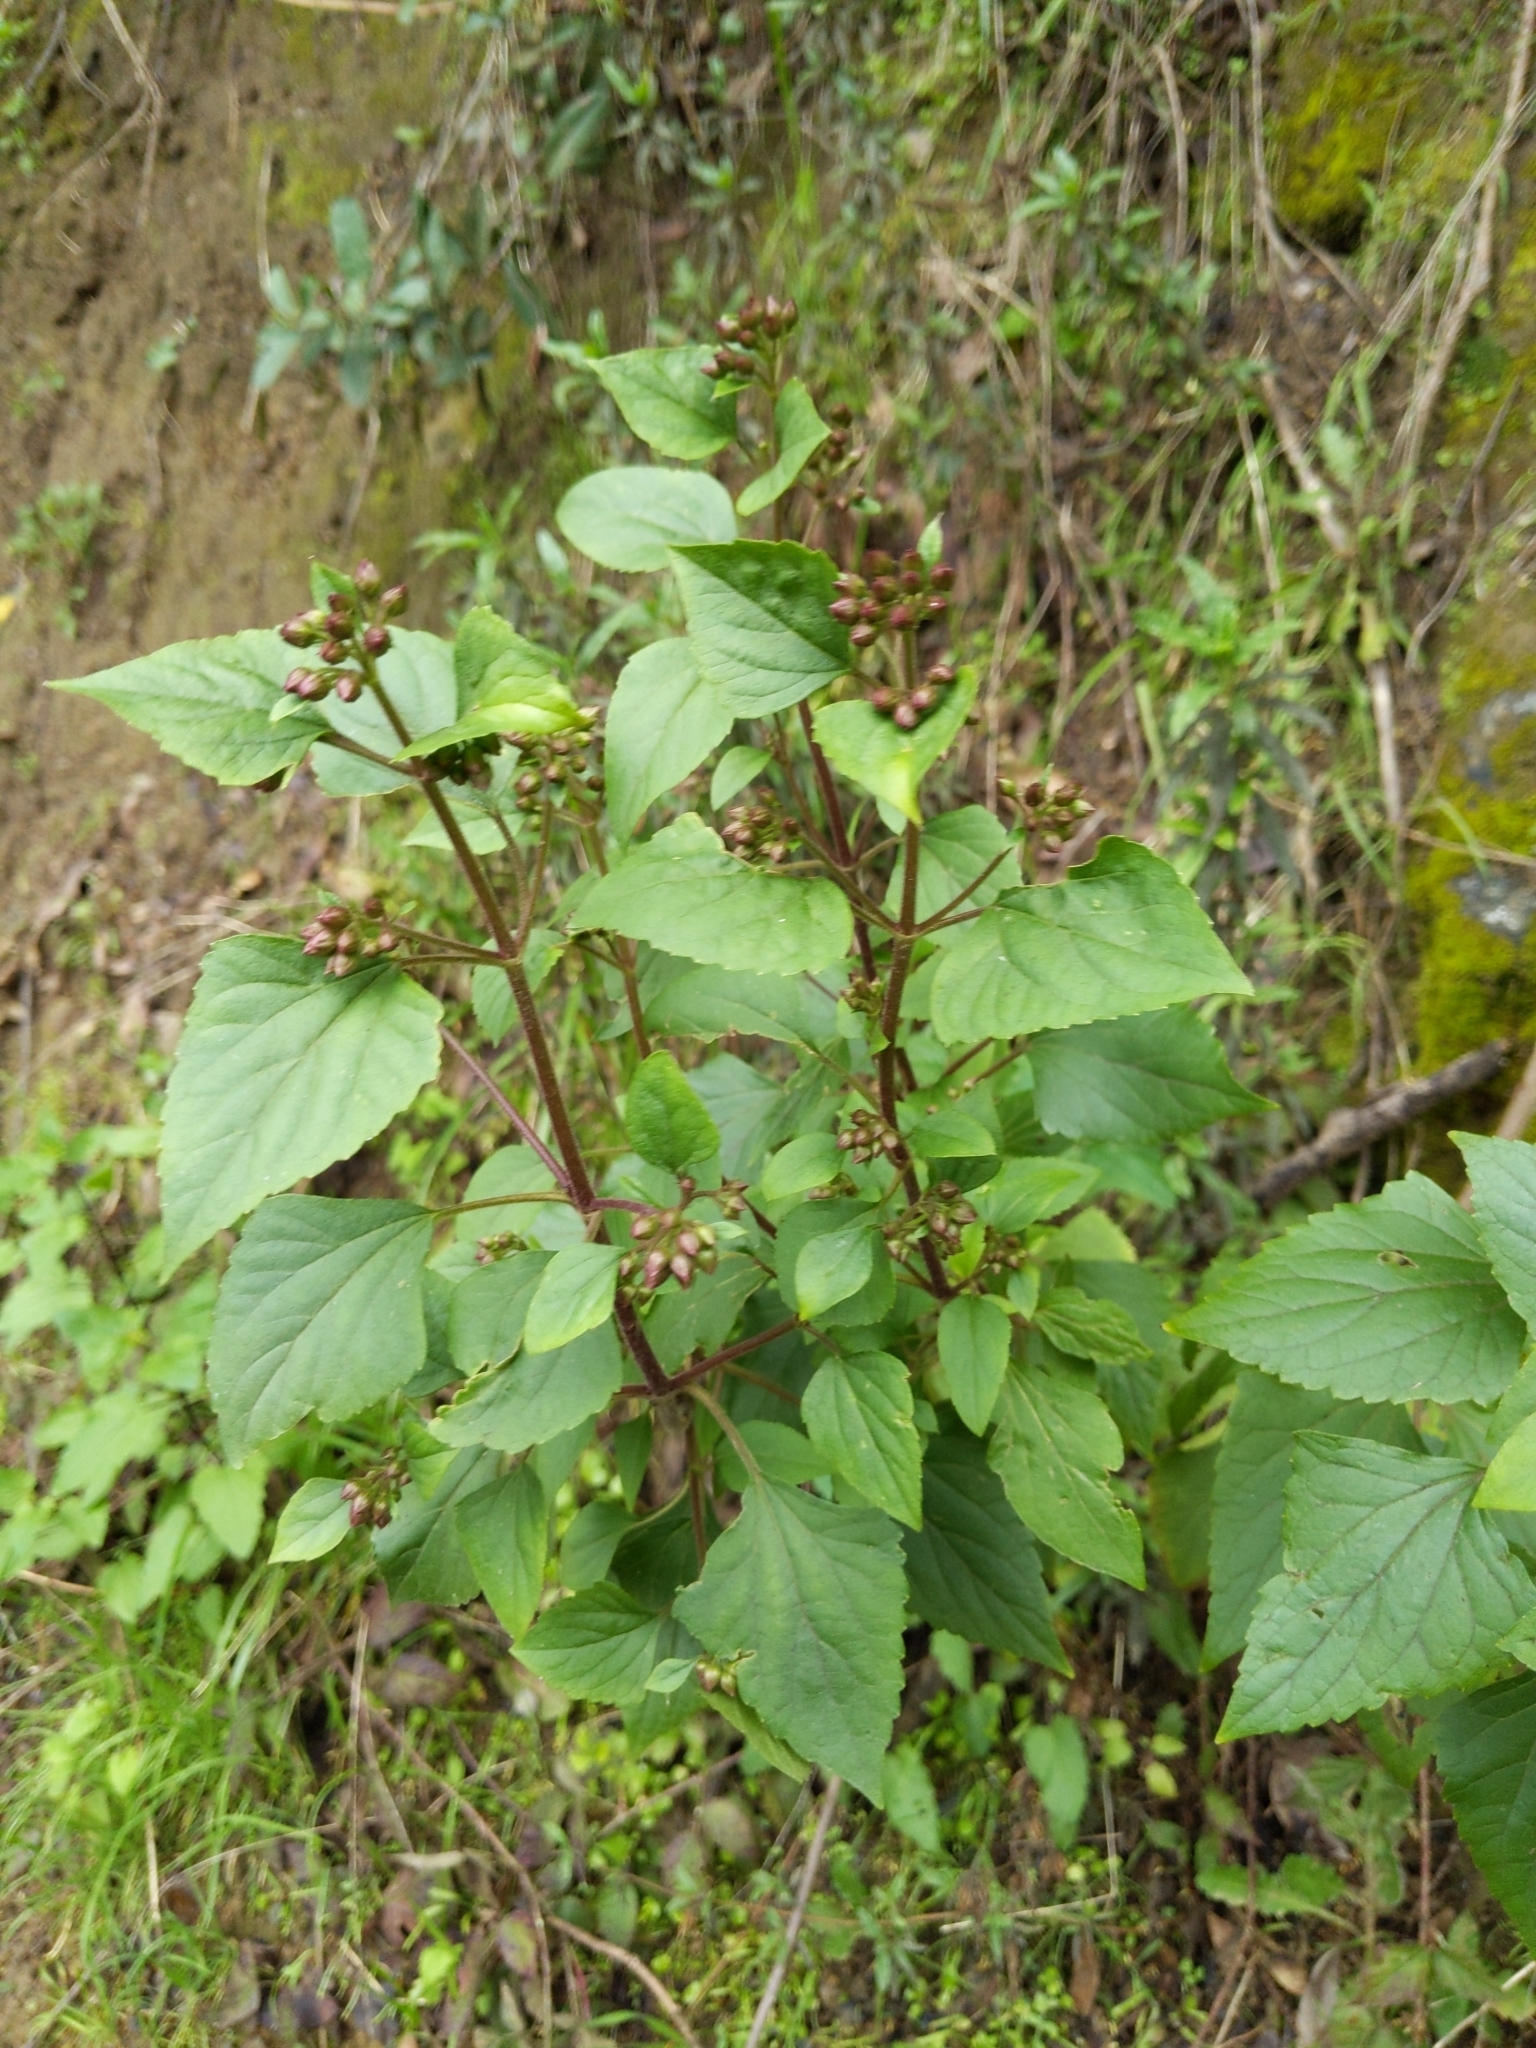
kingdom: Plantae
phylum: Tracheophyta
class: Magnoliopsida
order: Asterales
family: Asteraceae
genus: Ageratina
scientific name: Ageratina adenophora
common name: Sticky snakeroot
